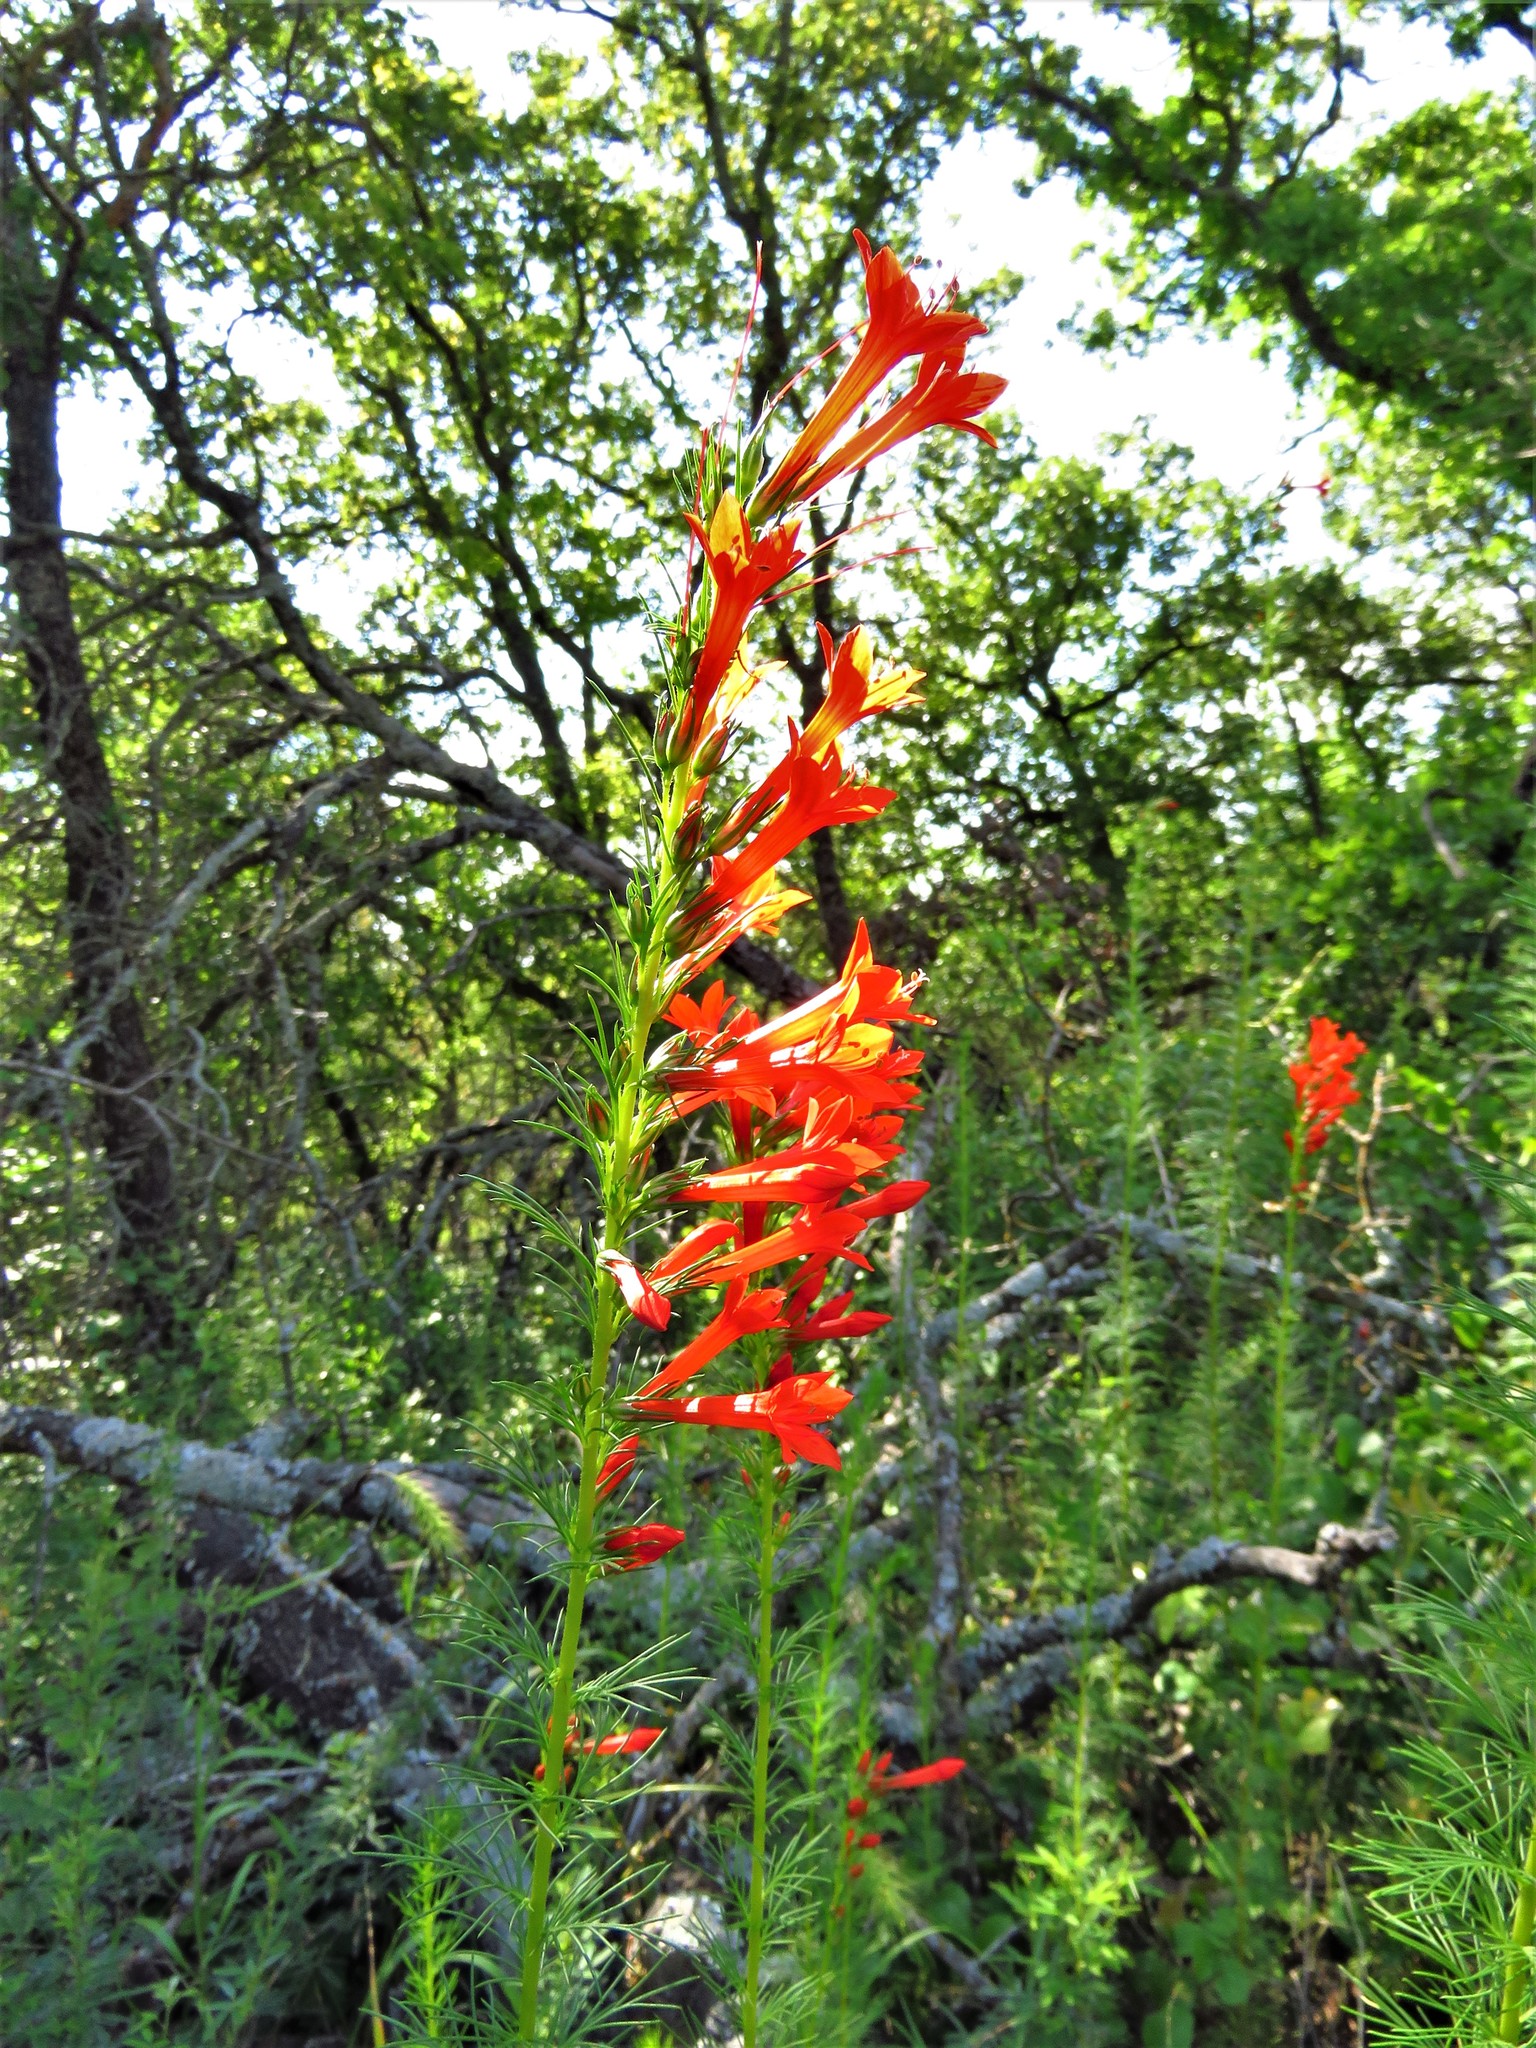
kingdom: Plantae
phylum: Tracheophyta
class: Magnoliopsida
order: Ericales
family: Polemoniaceae
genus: Ipomopsis
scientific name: Ipomopsis rubra
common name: Skyrocket
